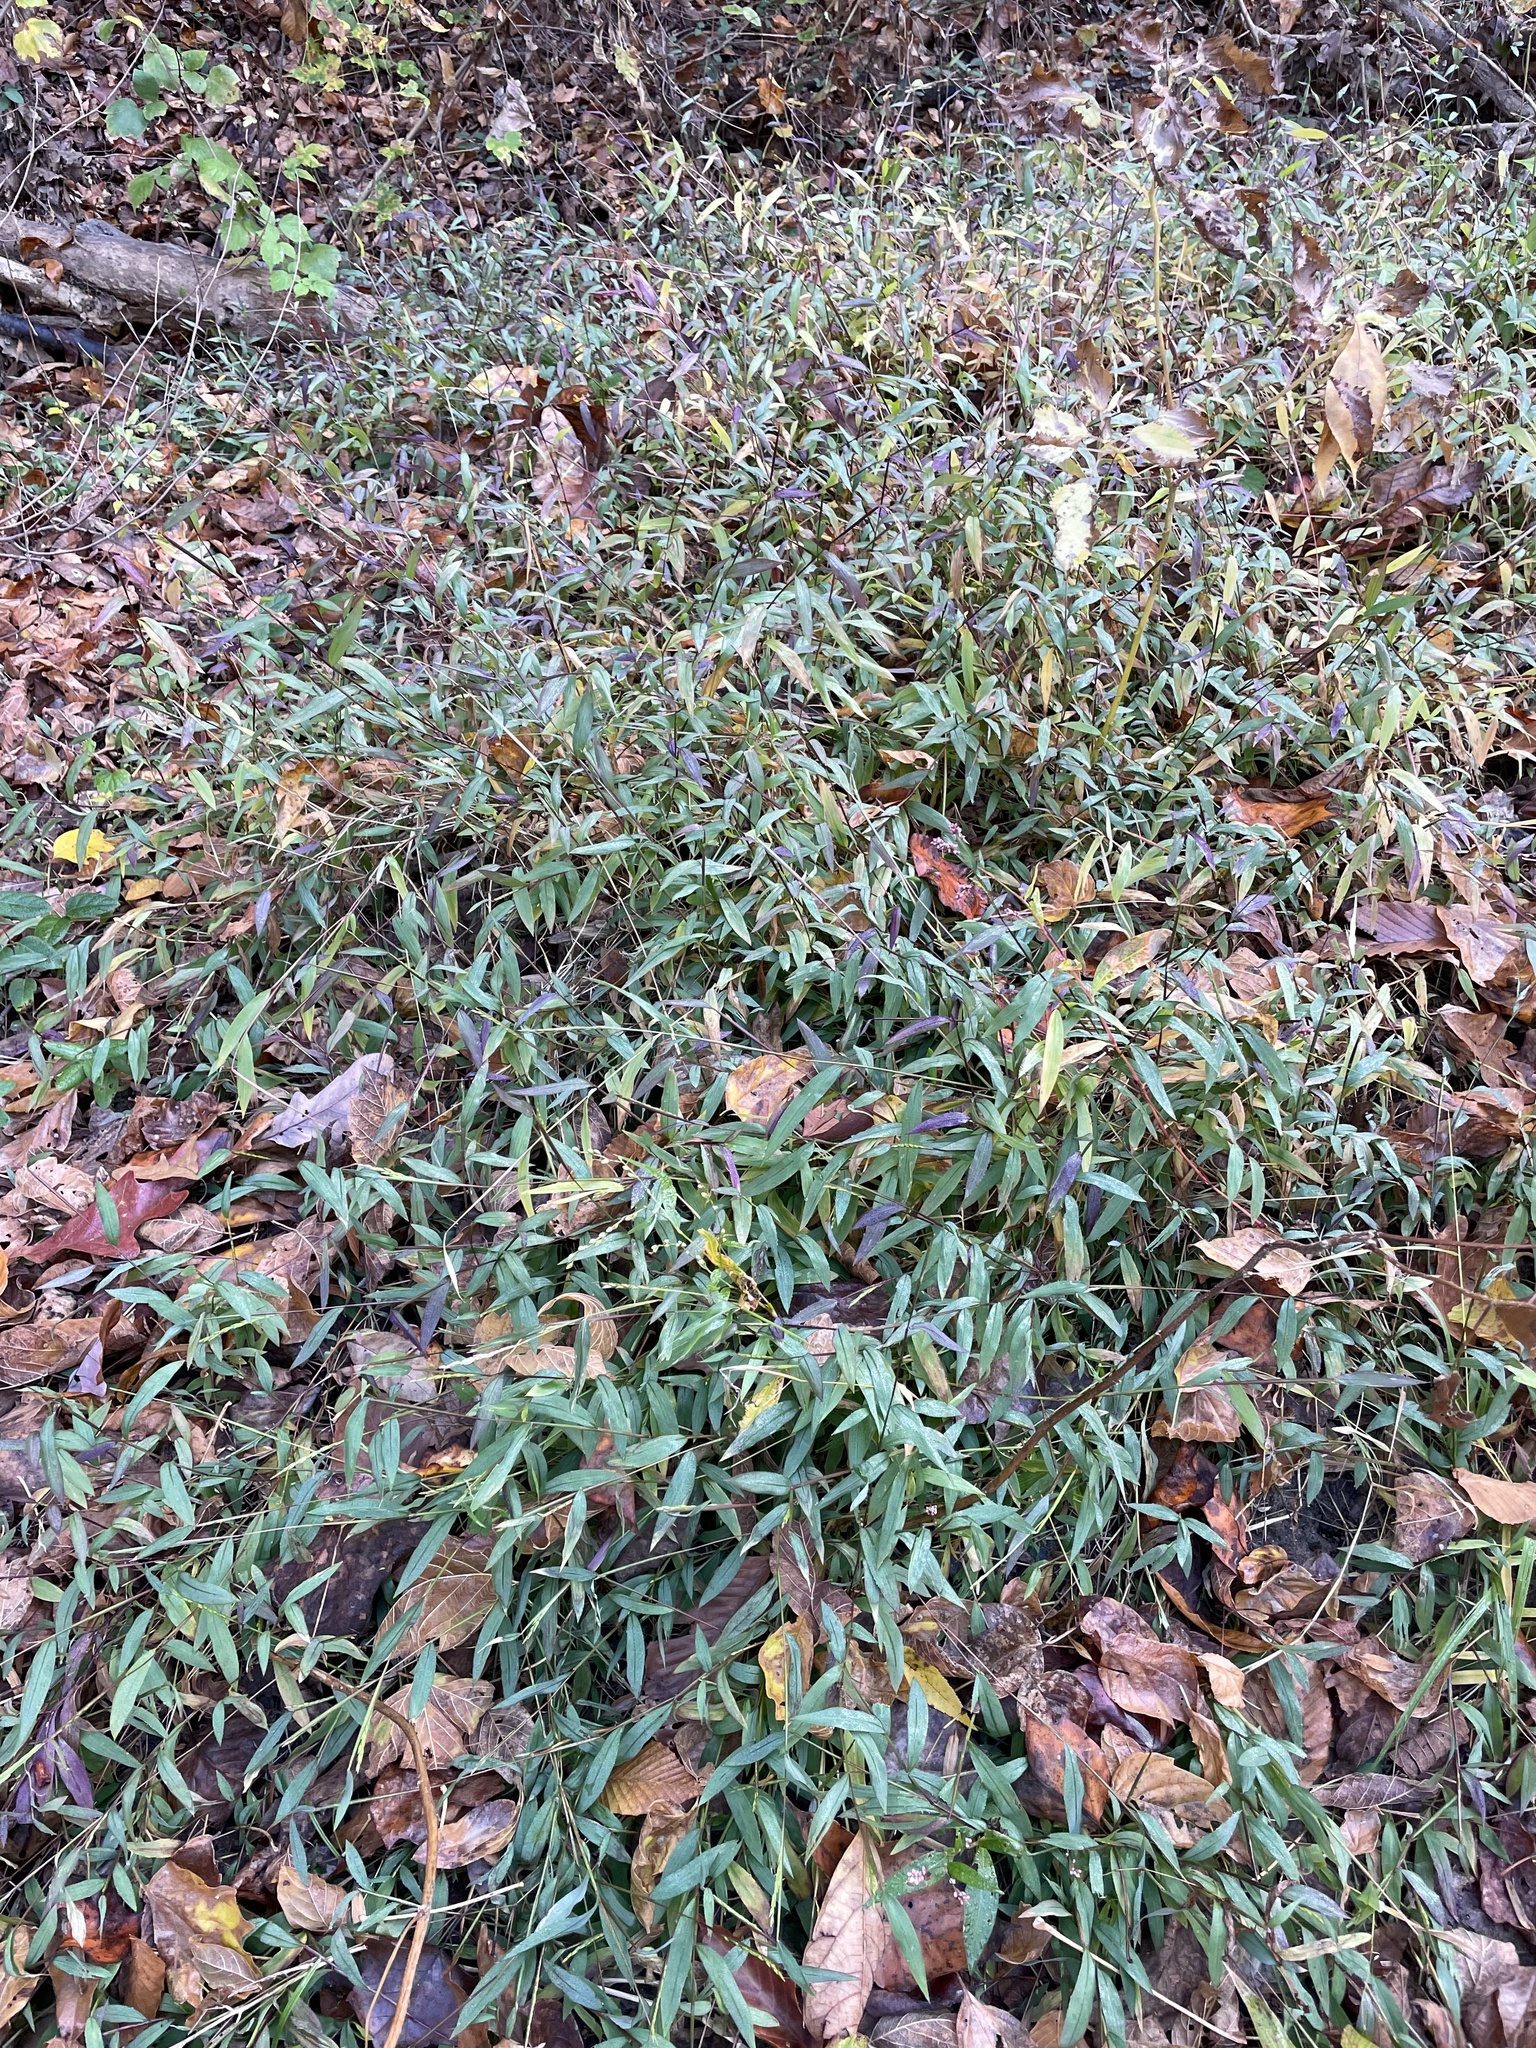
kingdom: Plantae
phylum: Tracheophyta
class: Liliopsida
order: Poales
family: Poaceae
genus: Microstegium
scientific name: Microstegium vimineum
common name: Japanese stiltgrass
